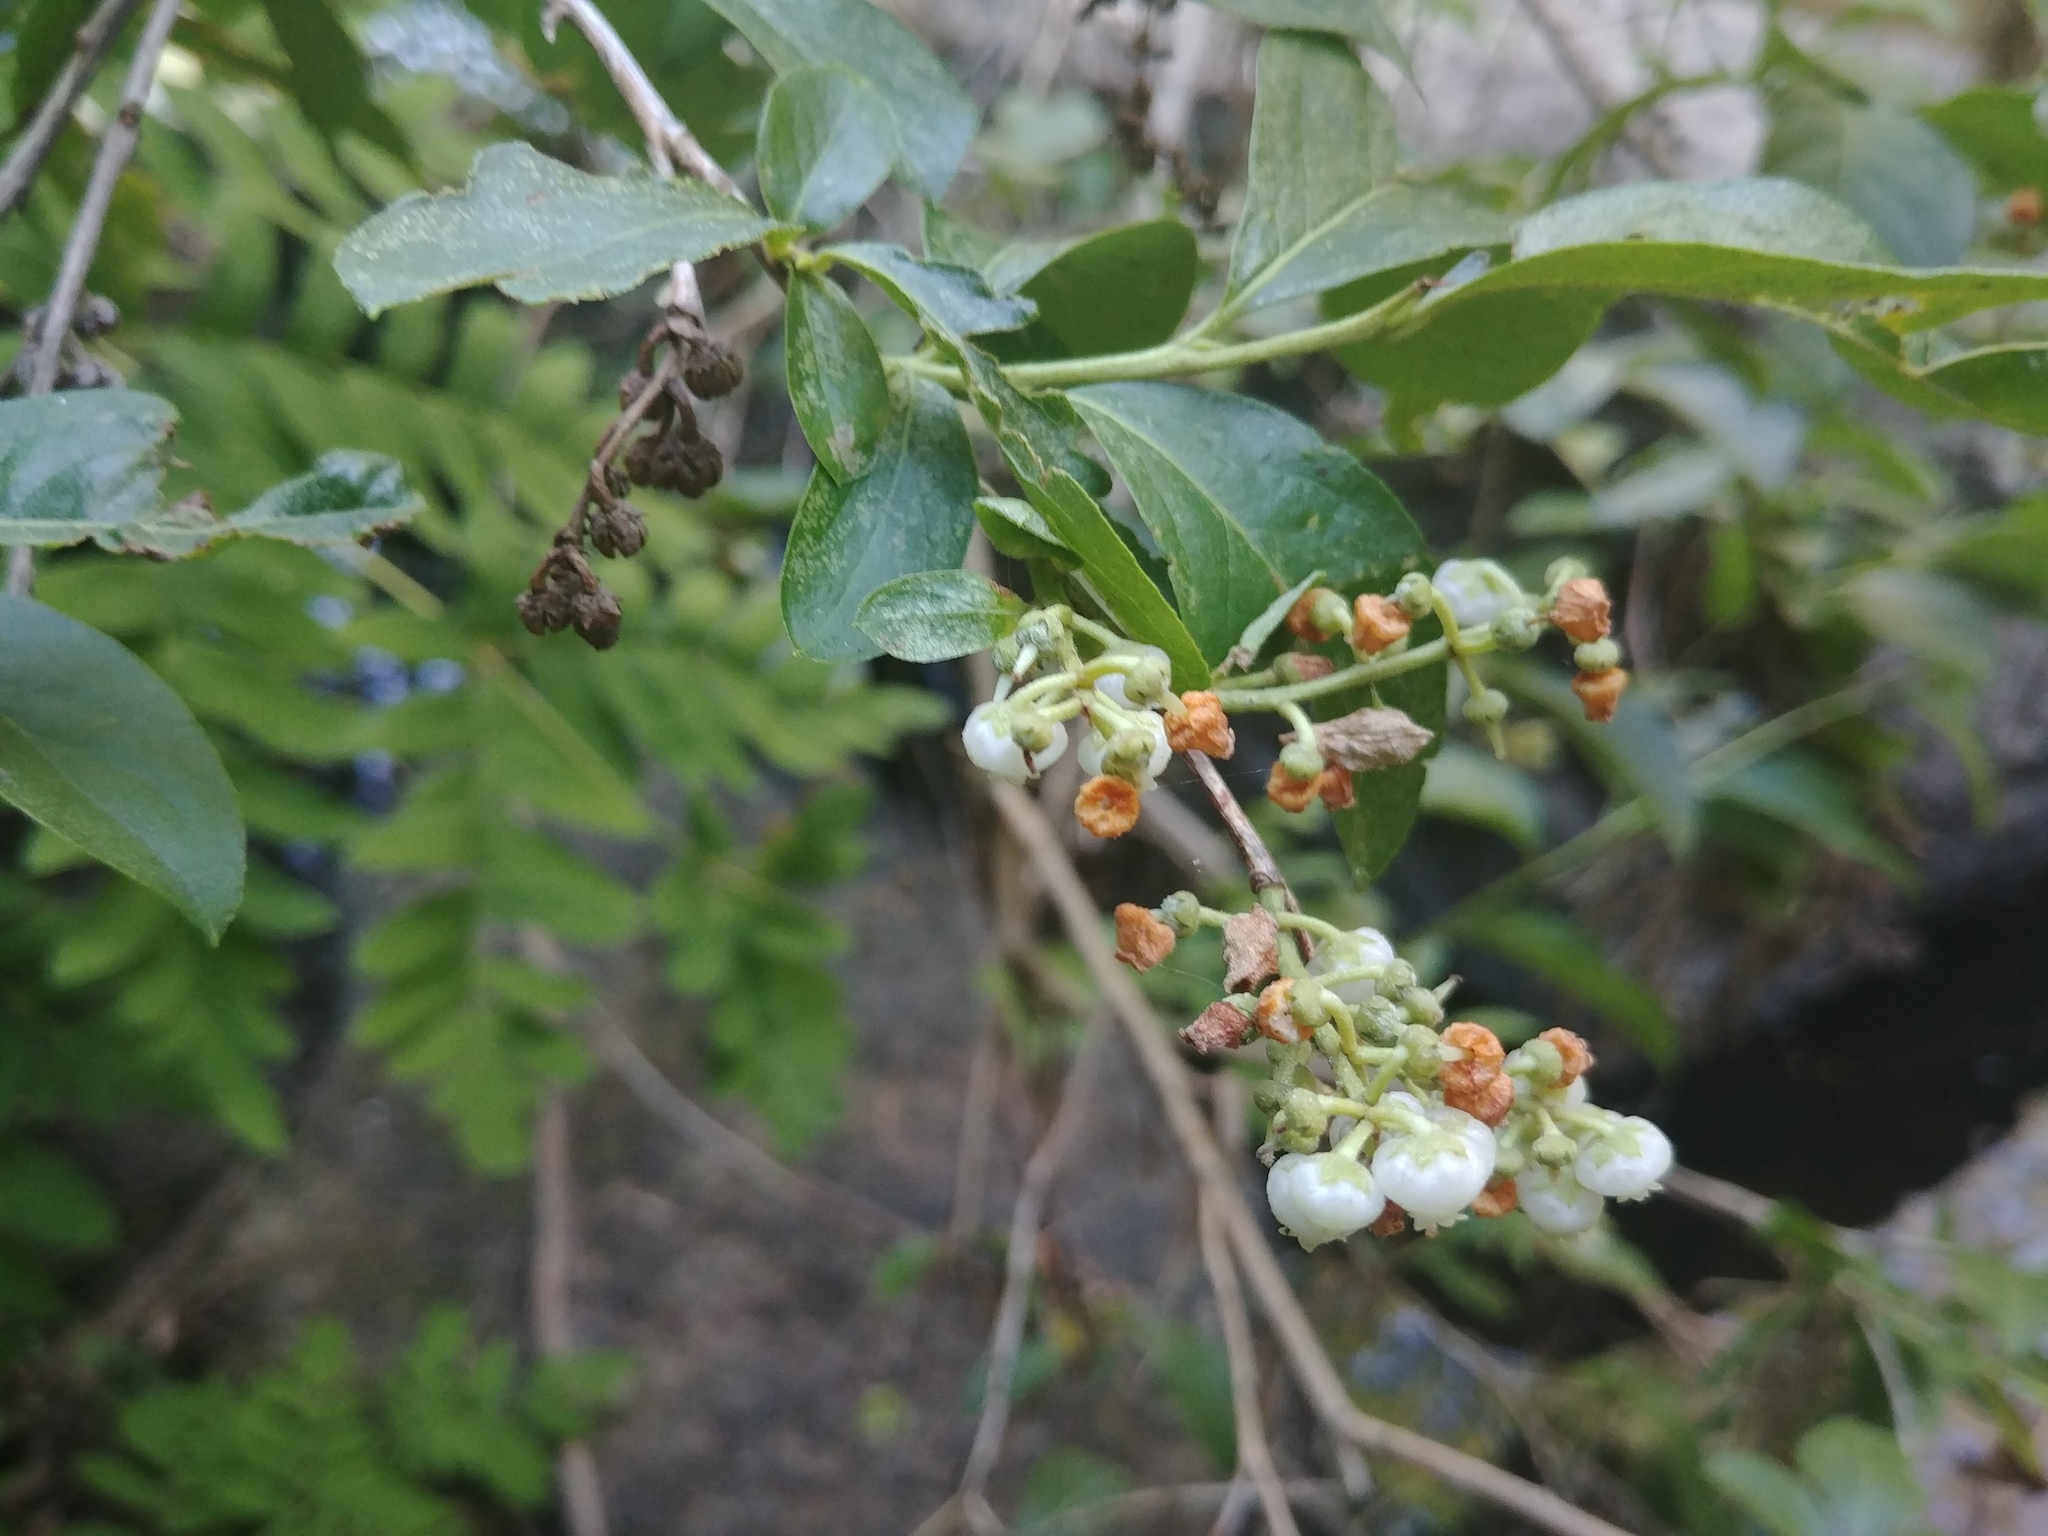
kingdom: Plantae
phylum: Tracheophyta
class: Magnoliopsida
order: Ericales
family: Ericaceae
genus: Lyonia
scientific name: Lyonia ligustrina
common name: Maleberry
